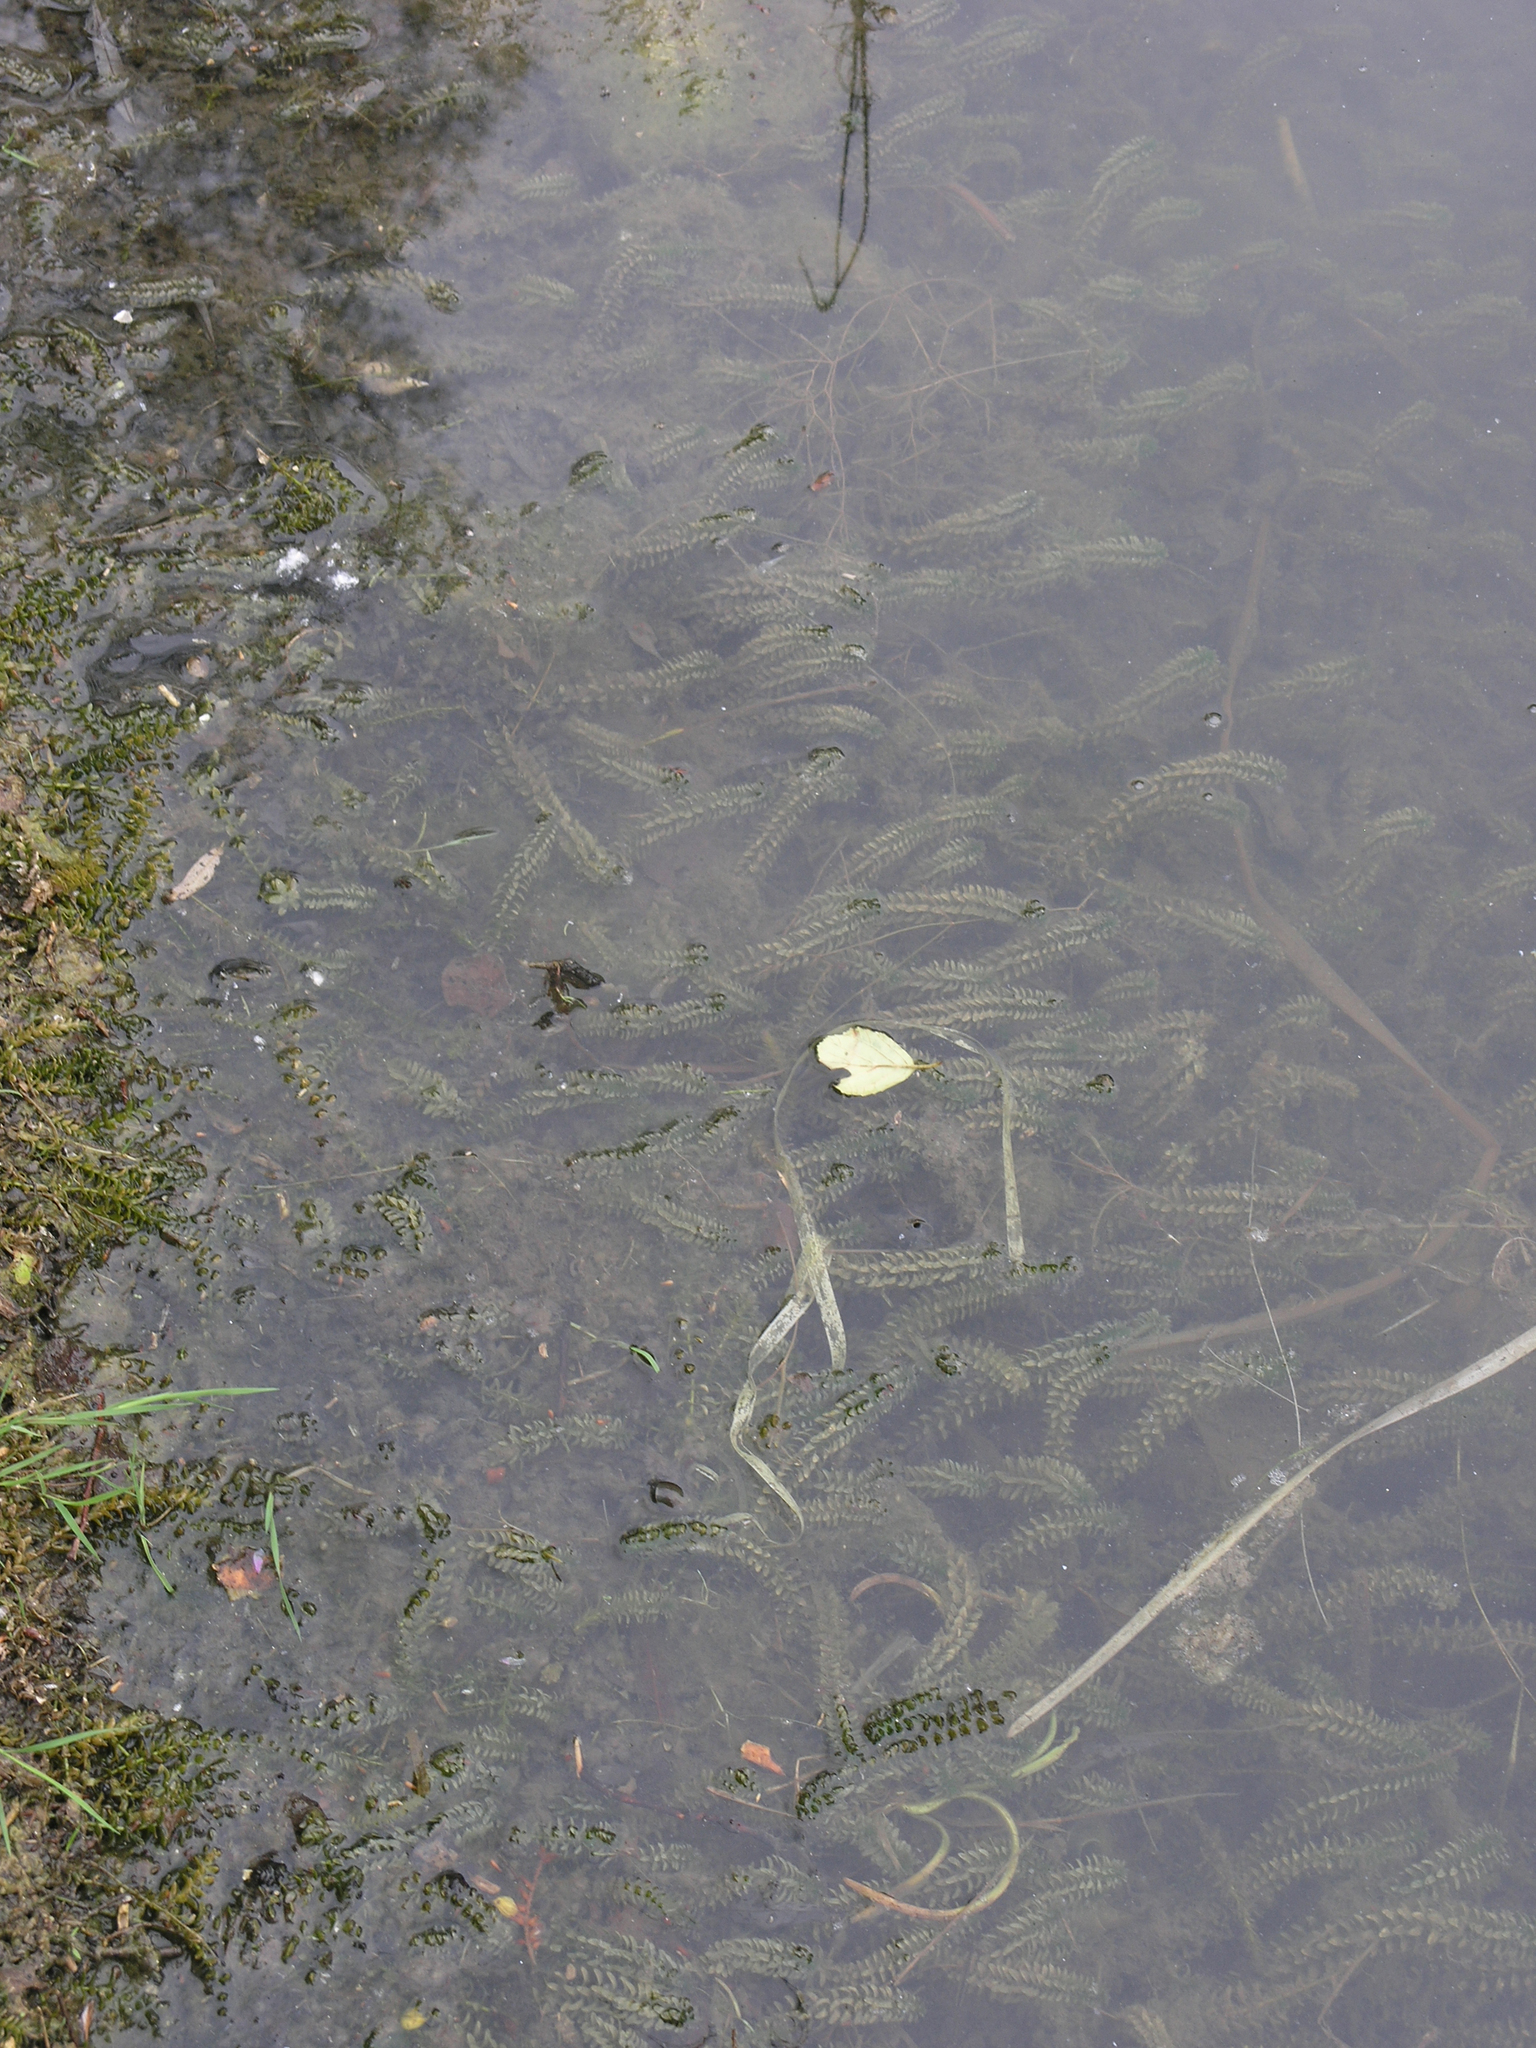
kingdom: Plantae
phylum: Tracheophyta
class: Liliopsida
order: Alismatales
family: Hydrocharitaceae
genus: Elodea
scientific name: Elodea canadensis
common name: Canadian waterweed
